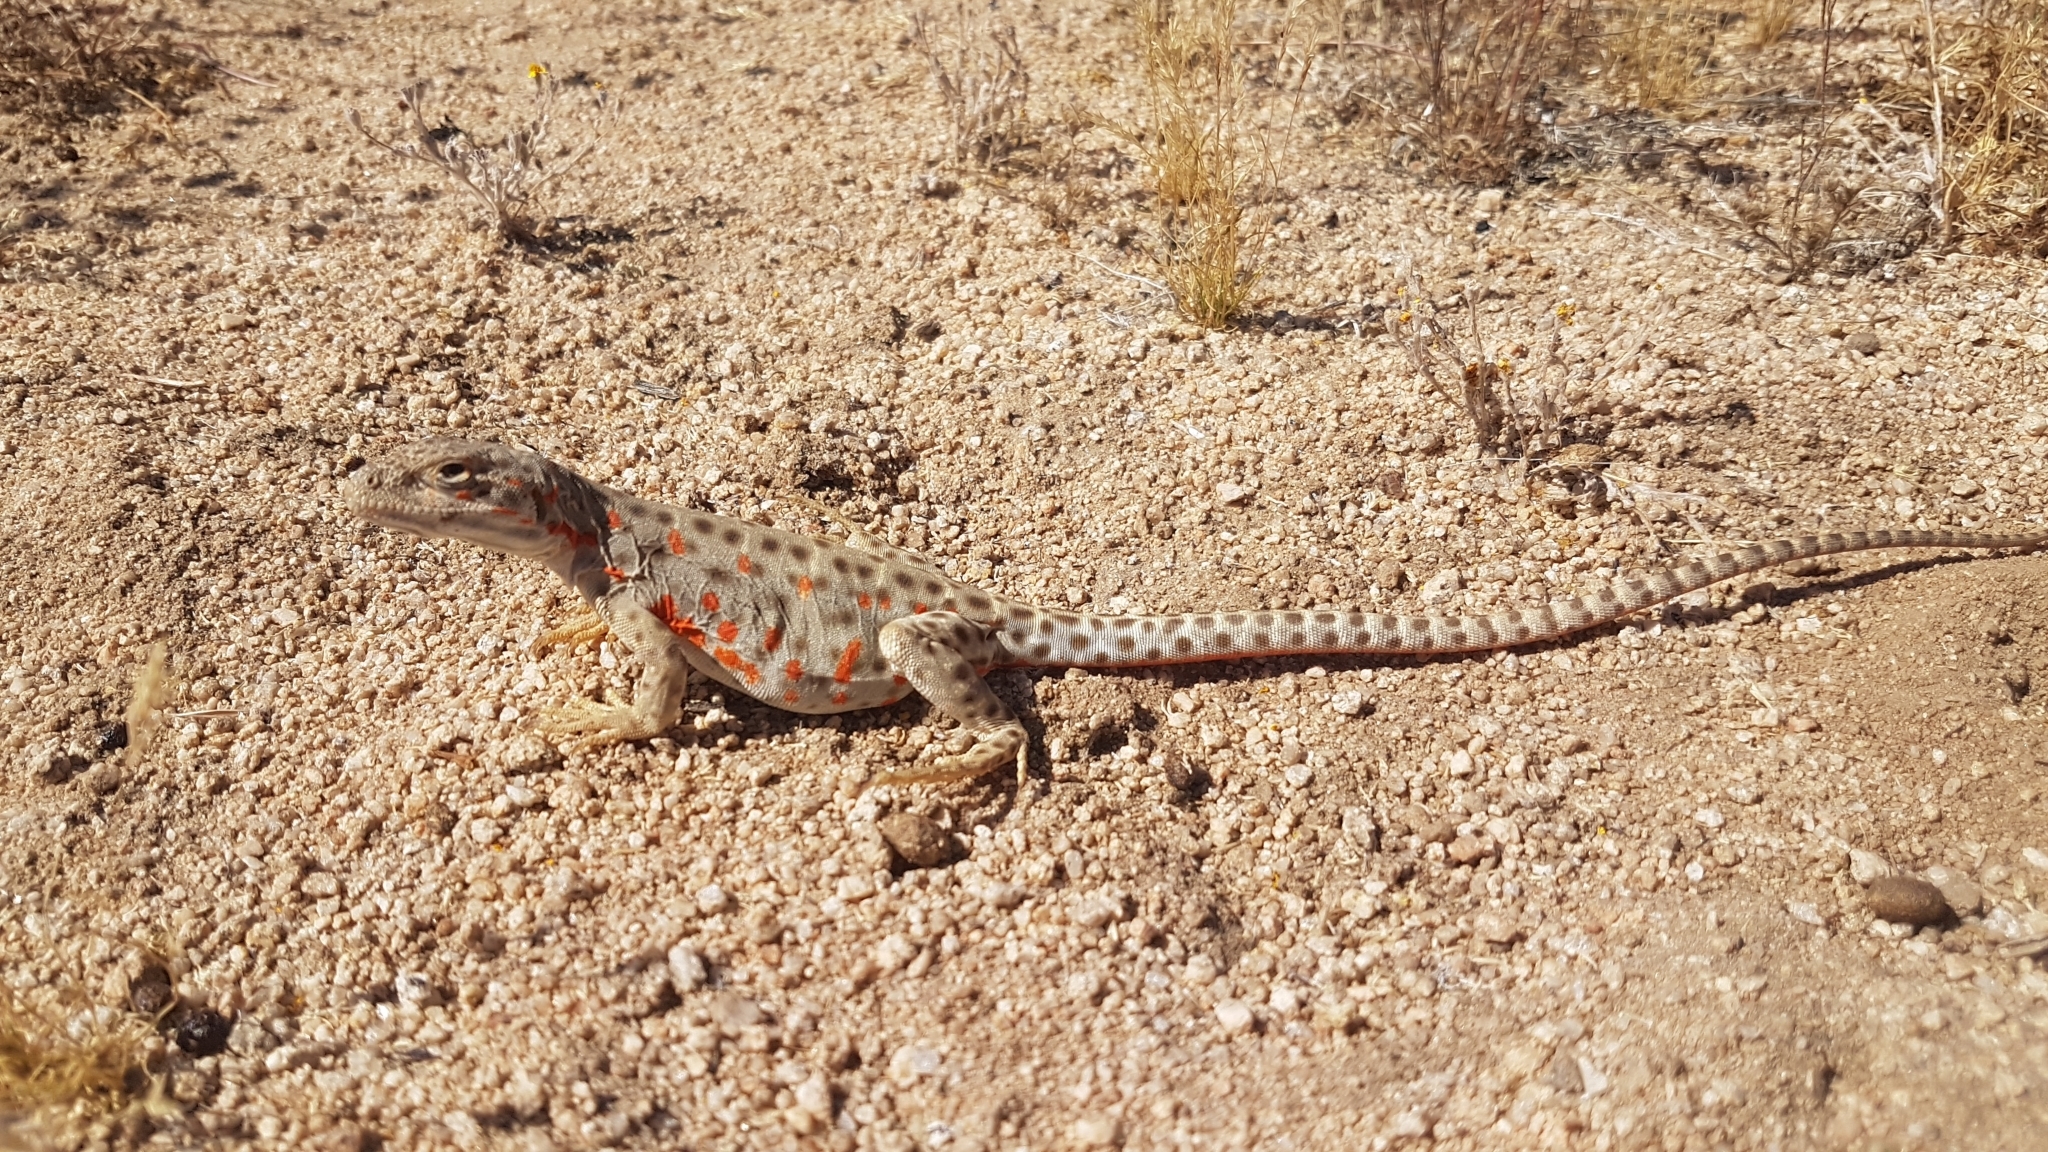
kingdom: Animalia
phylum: Chordata
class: Squamata
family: Crotaphytidae
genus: Gambelia
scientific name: Gambelia wislizenii
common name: Longnose leopard lizard
